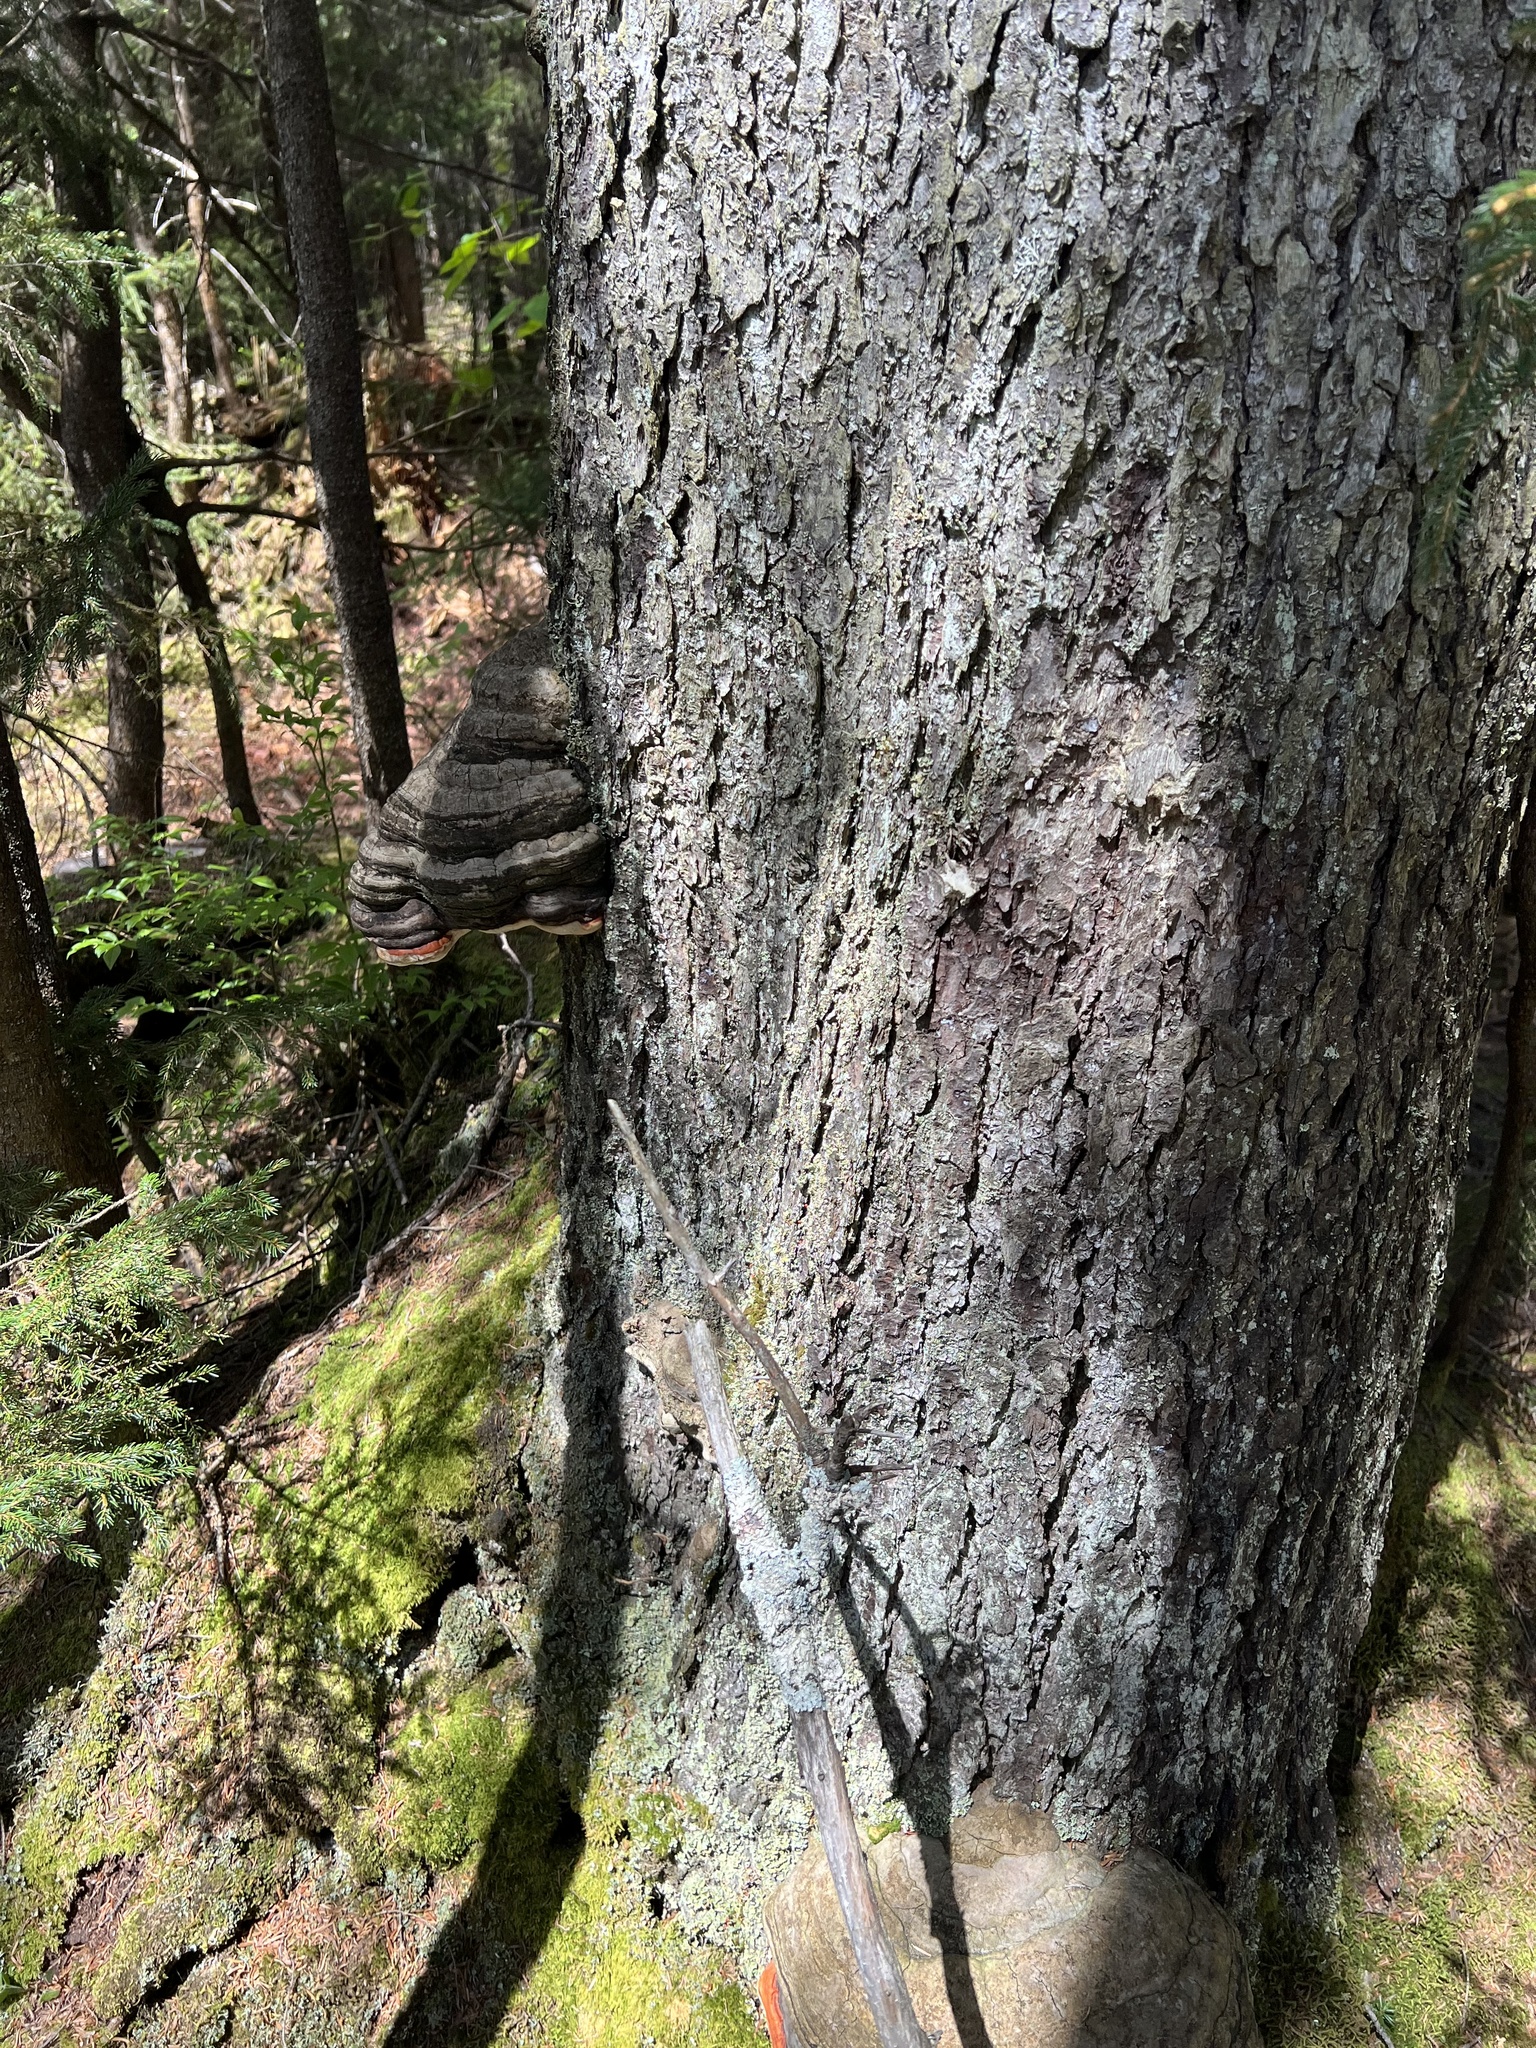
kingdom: Fungi
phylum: Basidiomycota
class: Agaricomycetes
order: Polyporales
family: Fomitopsidaceae
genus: Fomitopsis
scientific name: Fomitopsis mounceae
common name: Northern red belt
